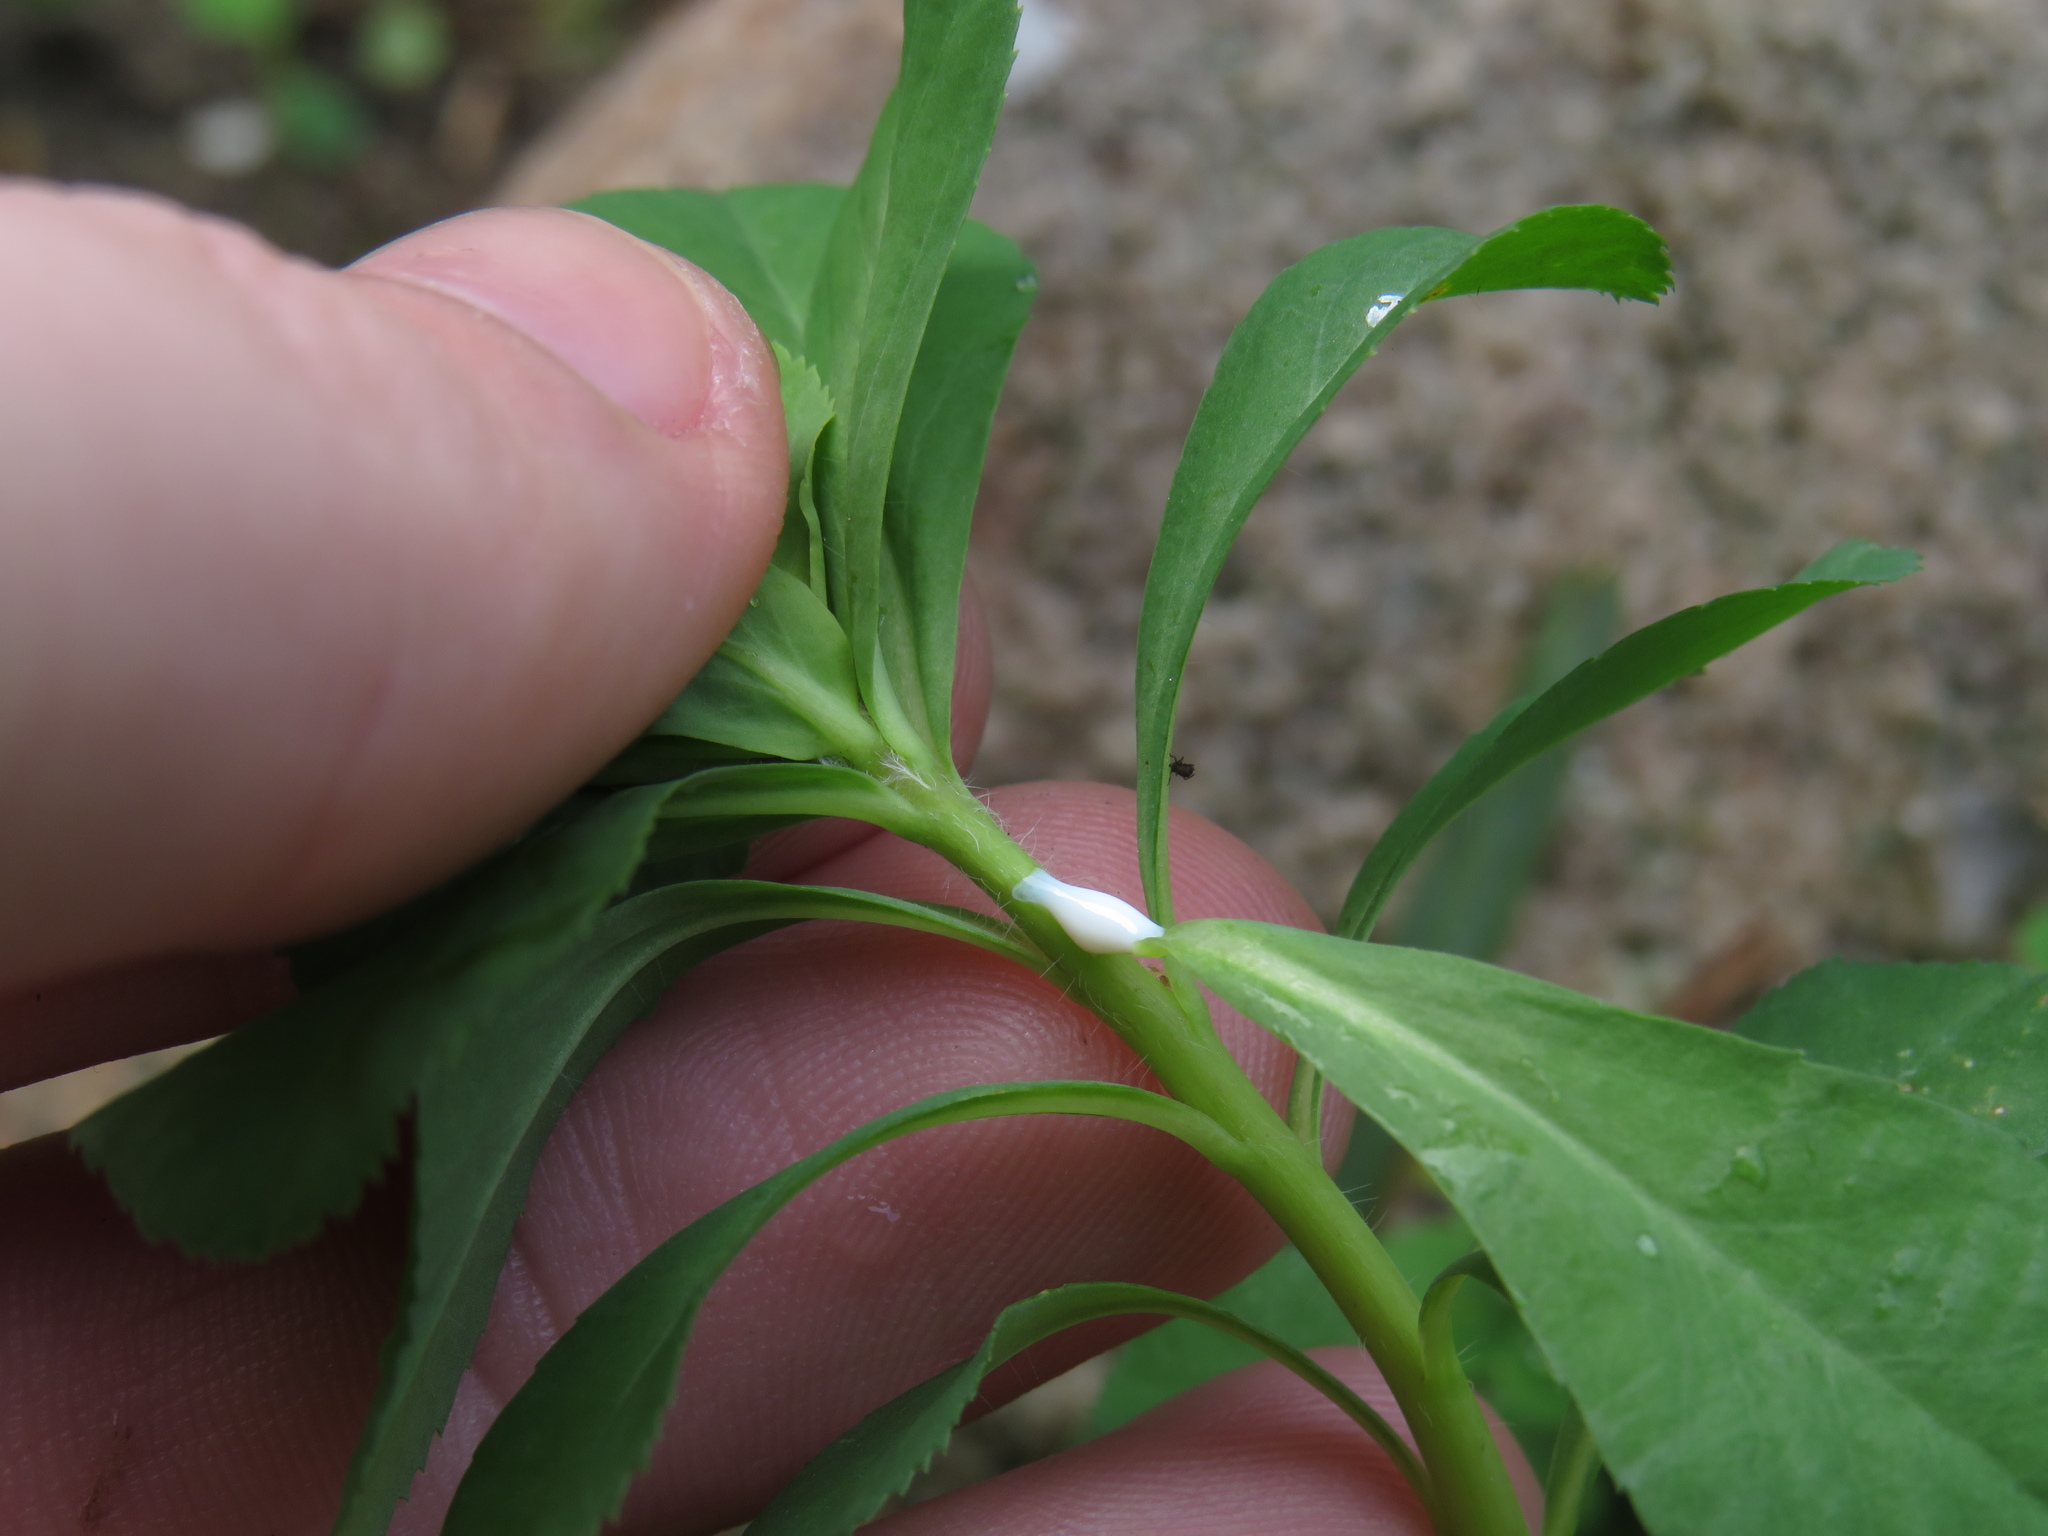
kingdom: Plantae
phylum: Tracheophyta
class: Magnoliopsida
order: Malpighiales
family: Euphorbiaceae
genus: Euphorbia
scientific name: Euphorbia helioscopia
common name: Sun spurge
